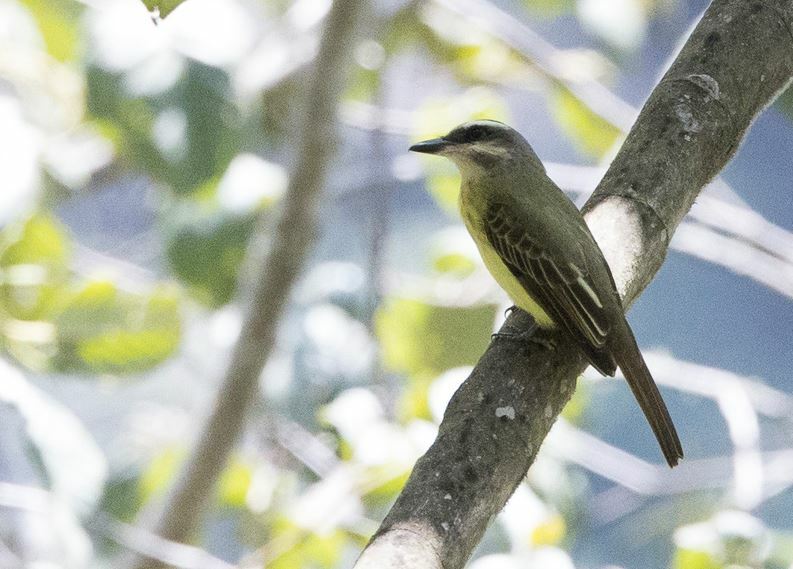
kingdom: Animalia
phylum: Chordata
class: Aves
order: Passeriformes
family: Tyrannidae
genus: Myiodynastes
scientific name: Myiodynastes chrysocephalus
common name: Golden-crowned flycatcher
